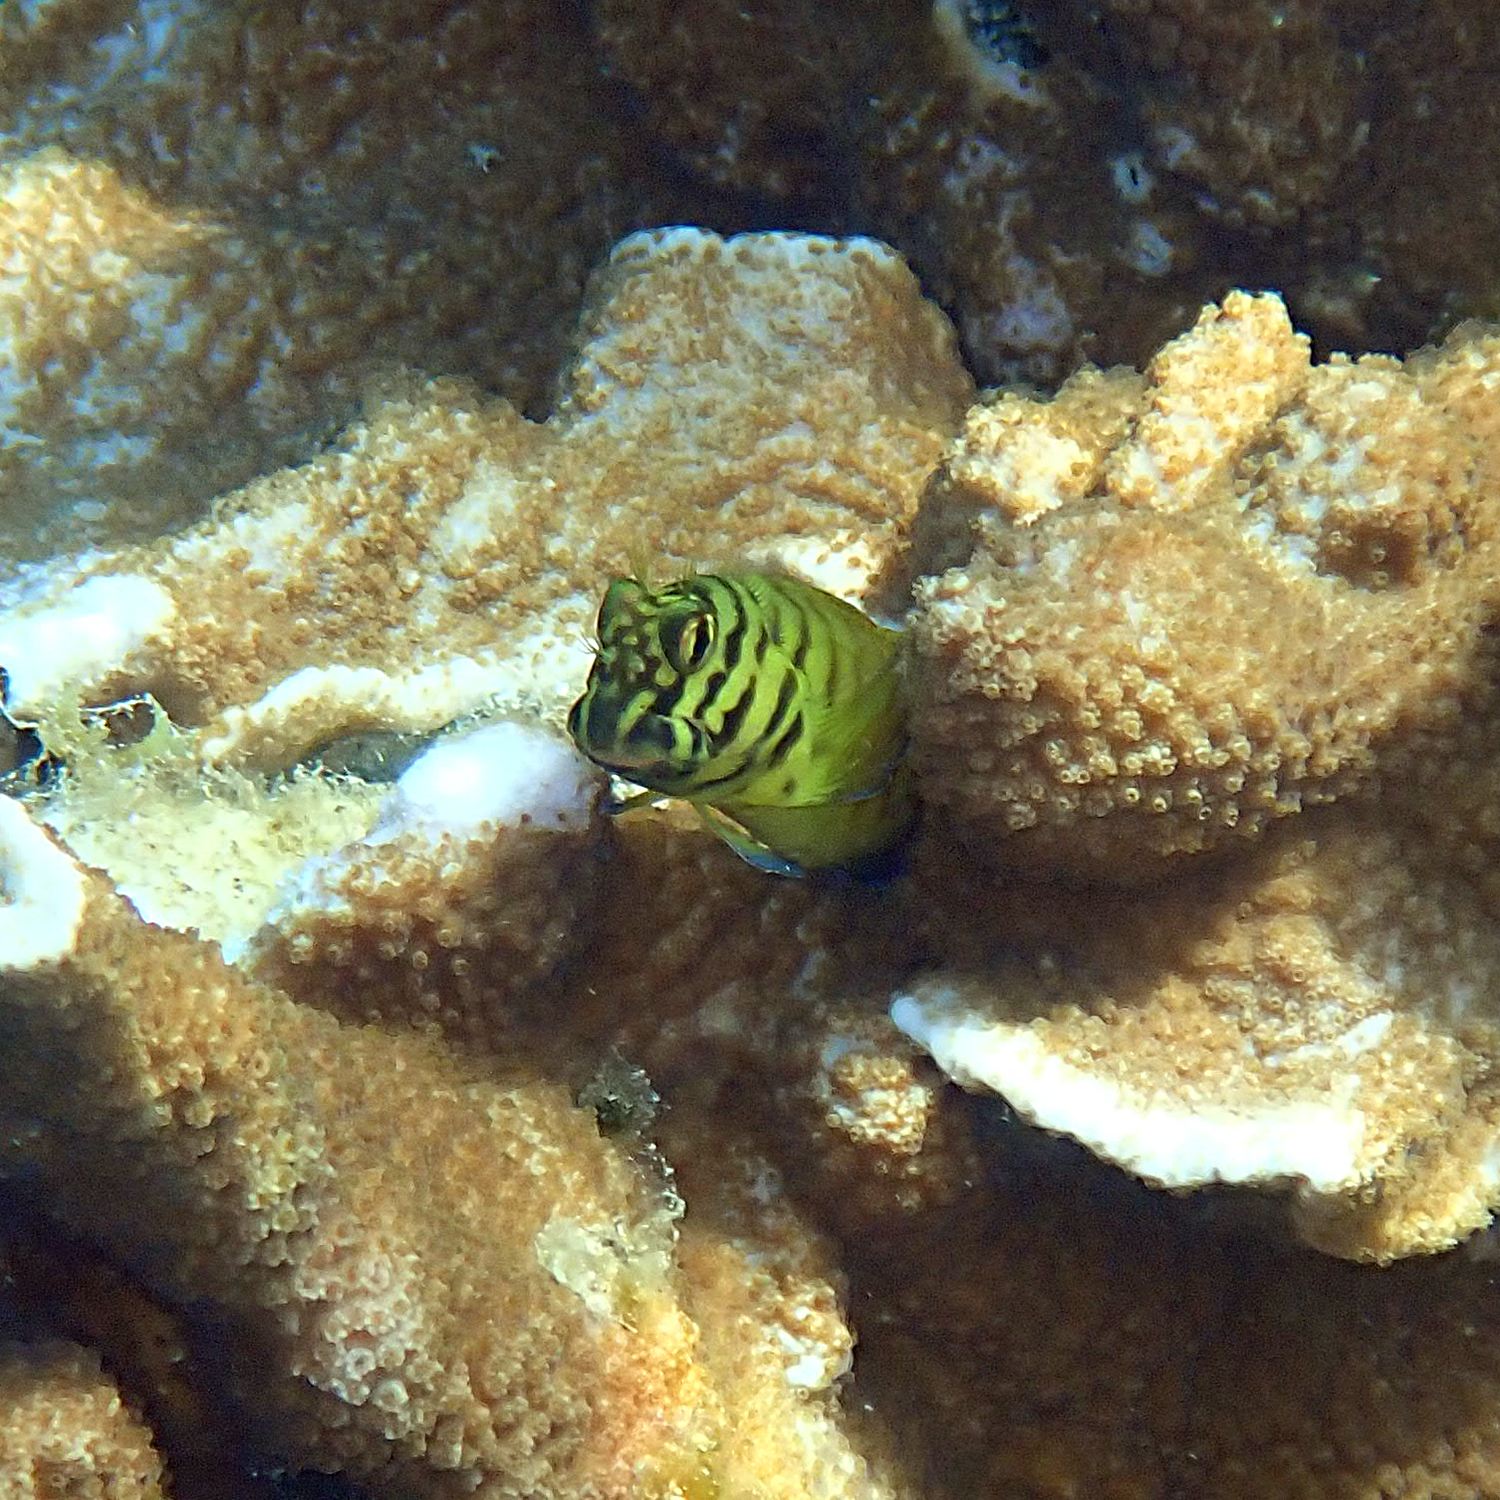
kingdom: Animalia
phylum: Chordata
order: Perciformes
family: Blenniidae
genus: Cirripectes
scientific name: Cirripectes castaneus
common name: Chestnut blenny
